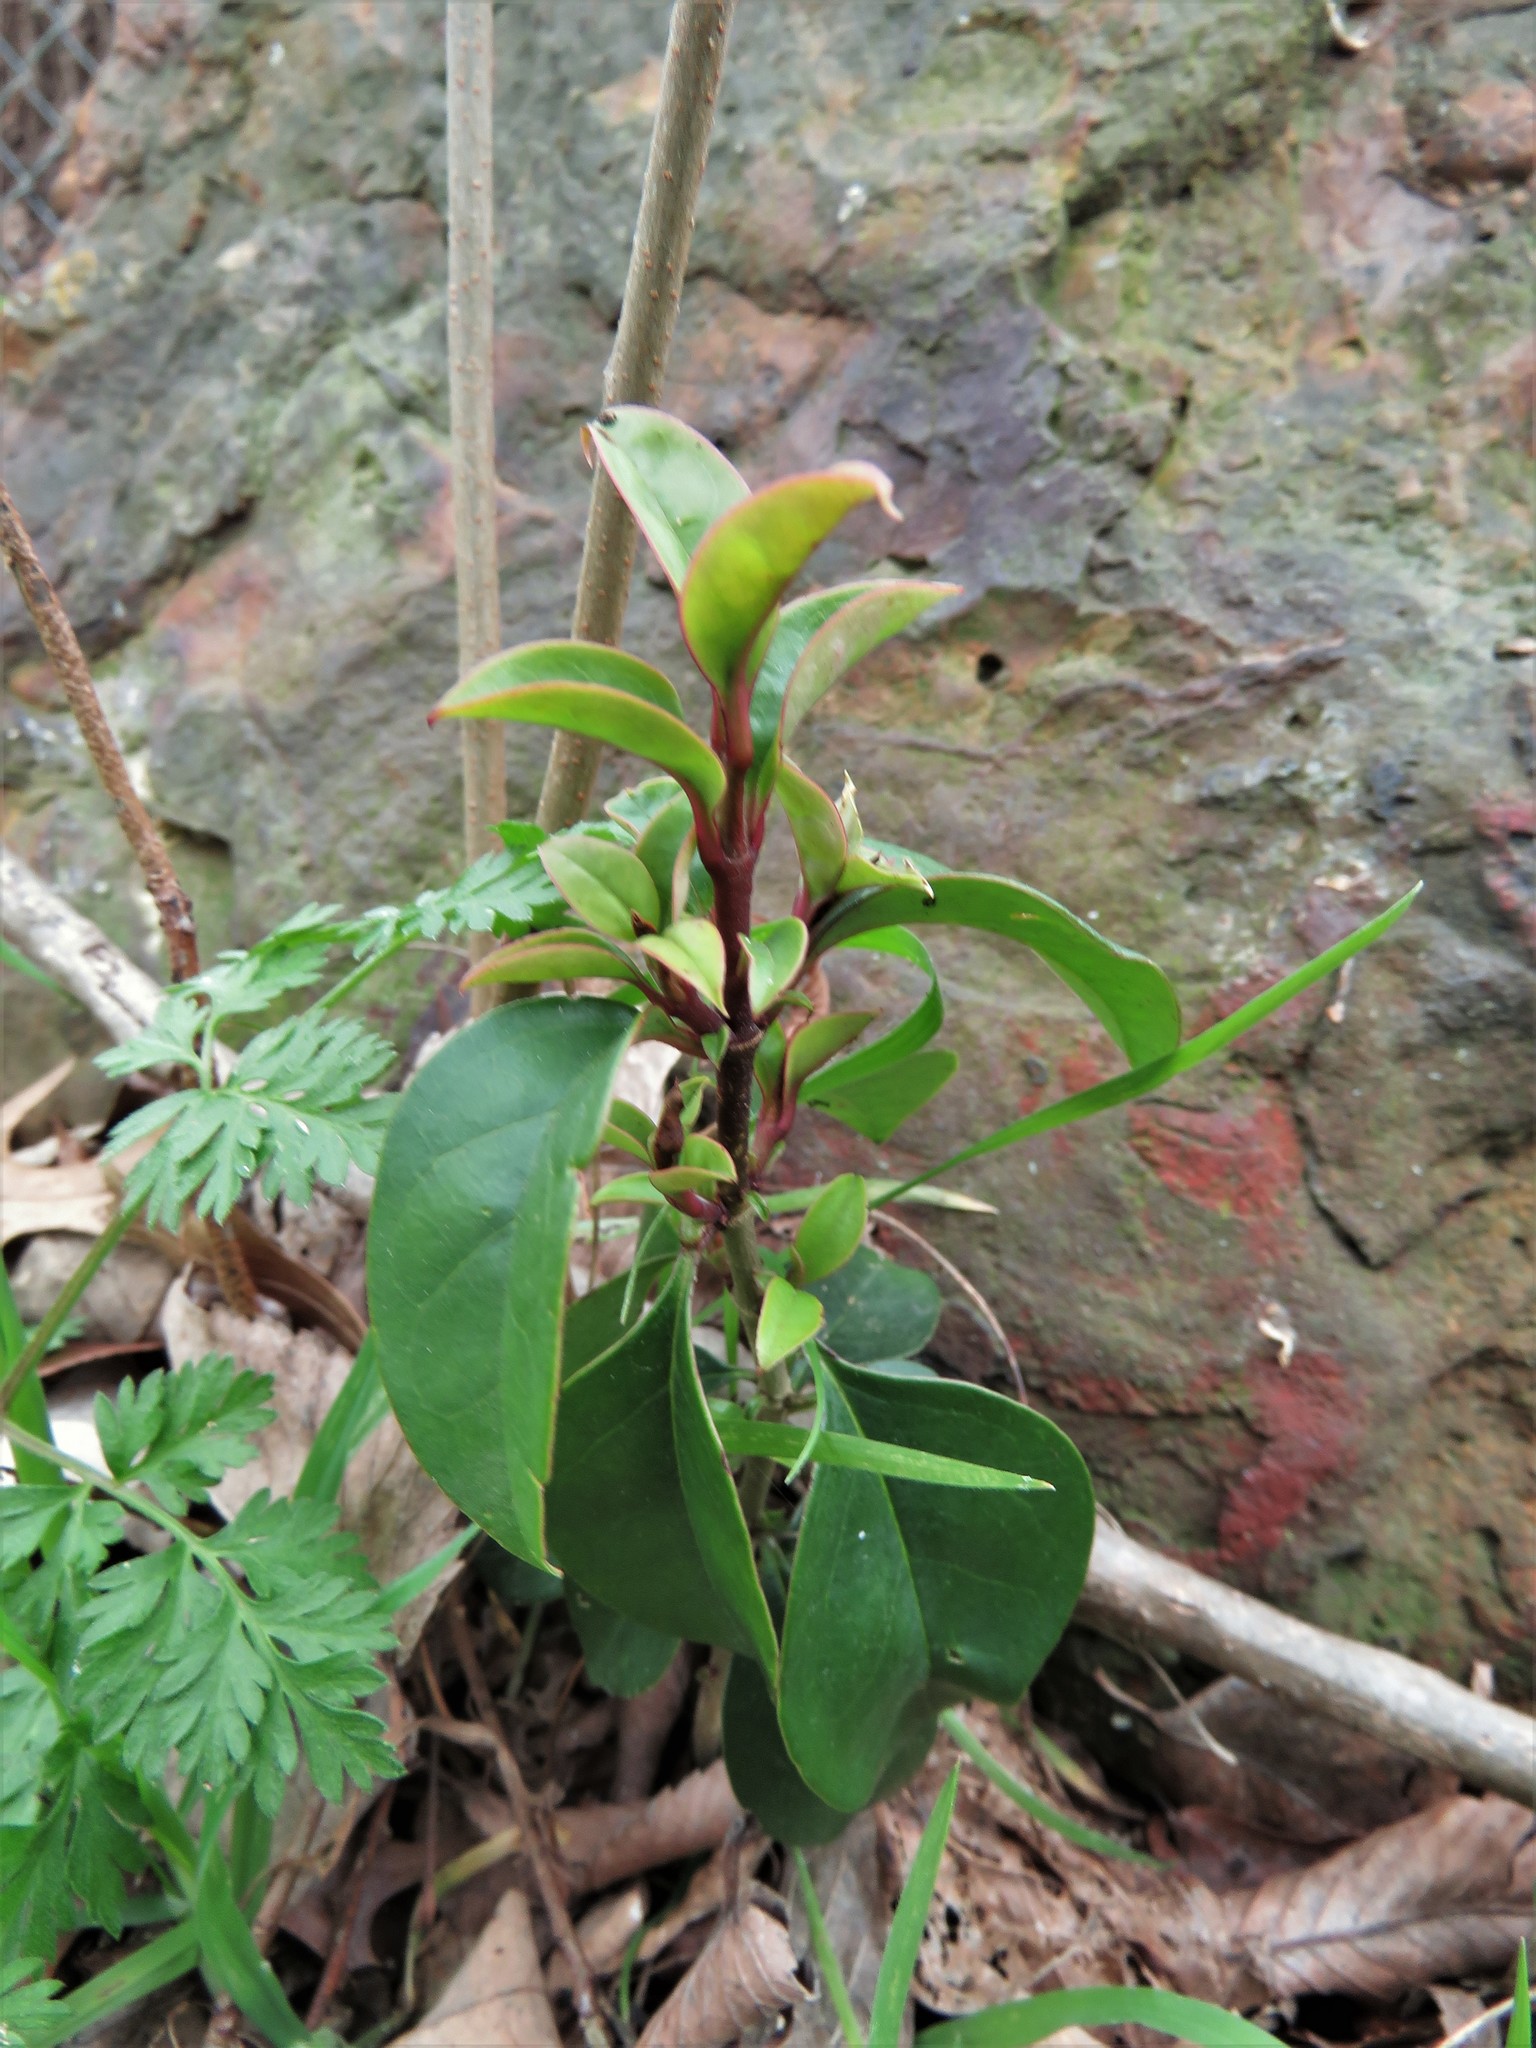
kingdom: Plantae
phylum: Tracheophyta
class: Magnoliopsida
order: Lamiales
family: Oleaceae
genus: Ligustrum
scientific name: Ligustrum lucidum
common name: Glossy privet
